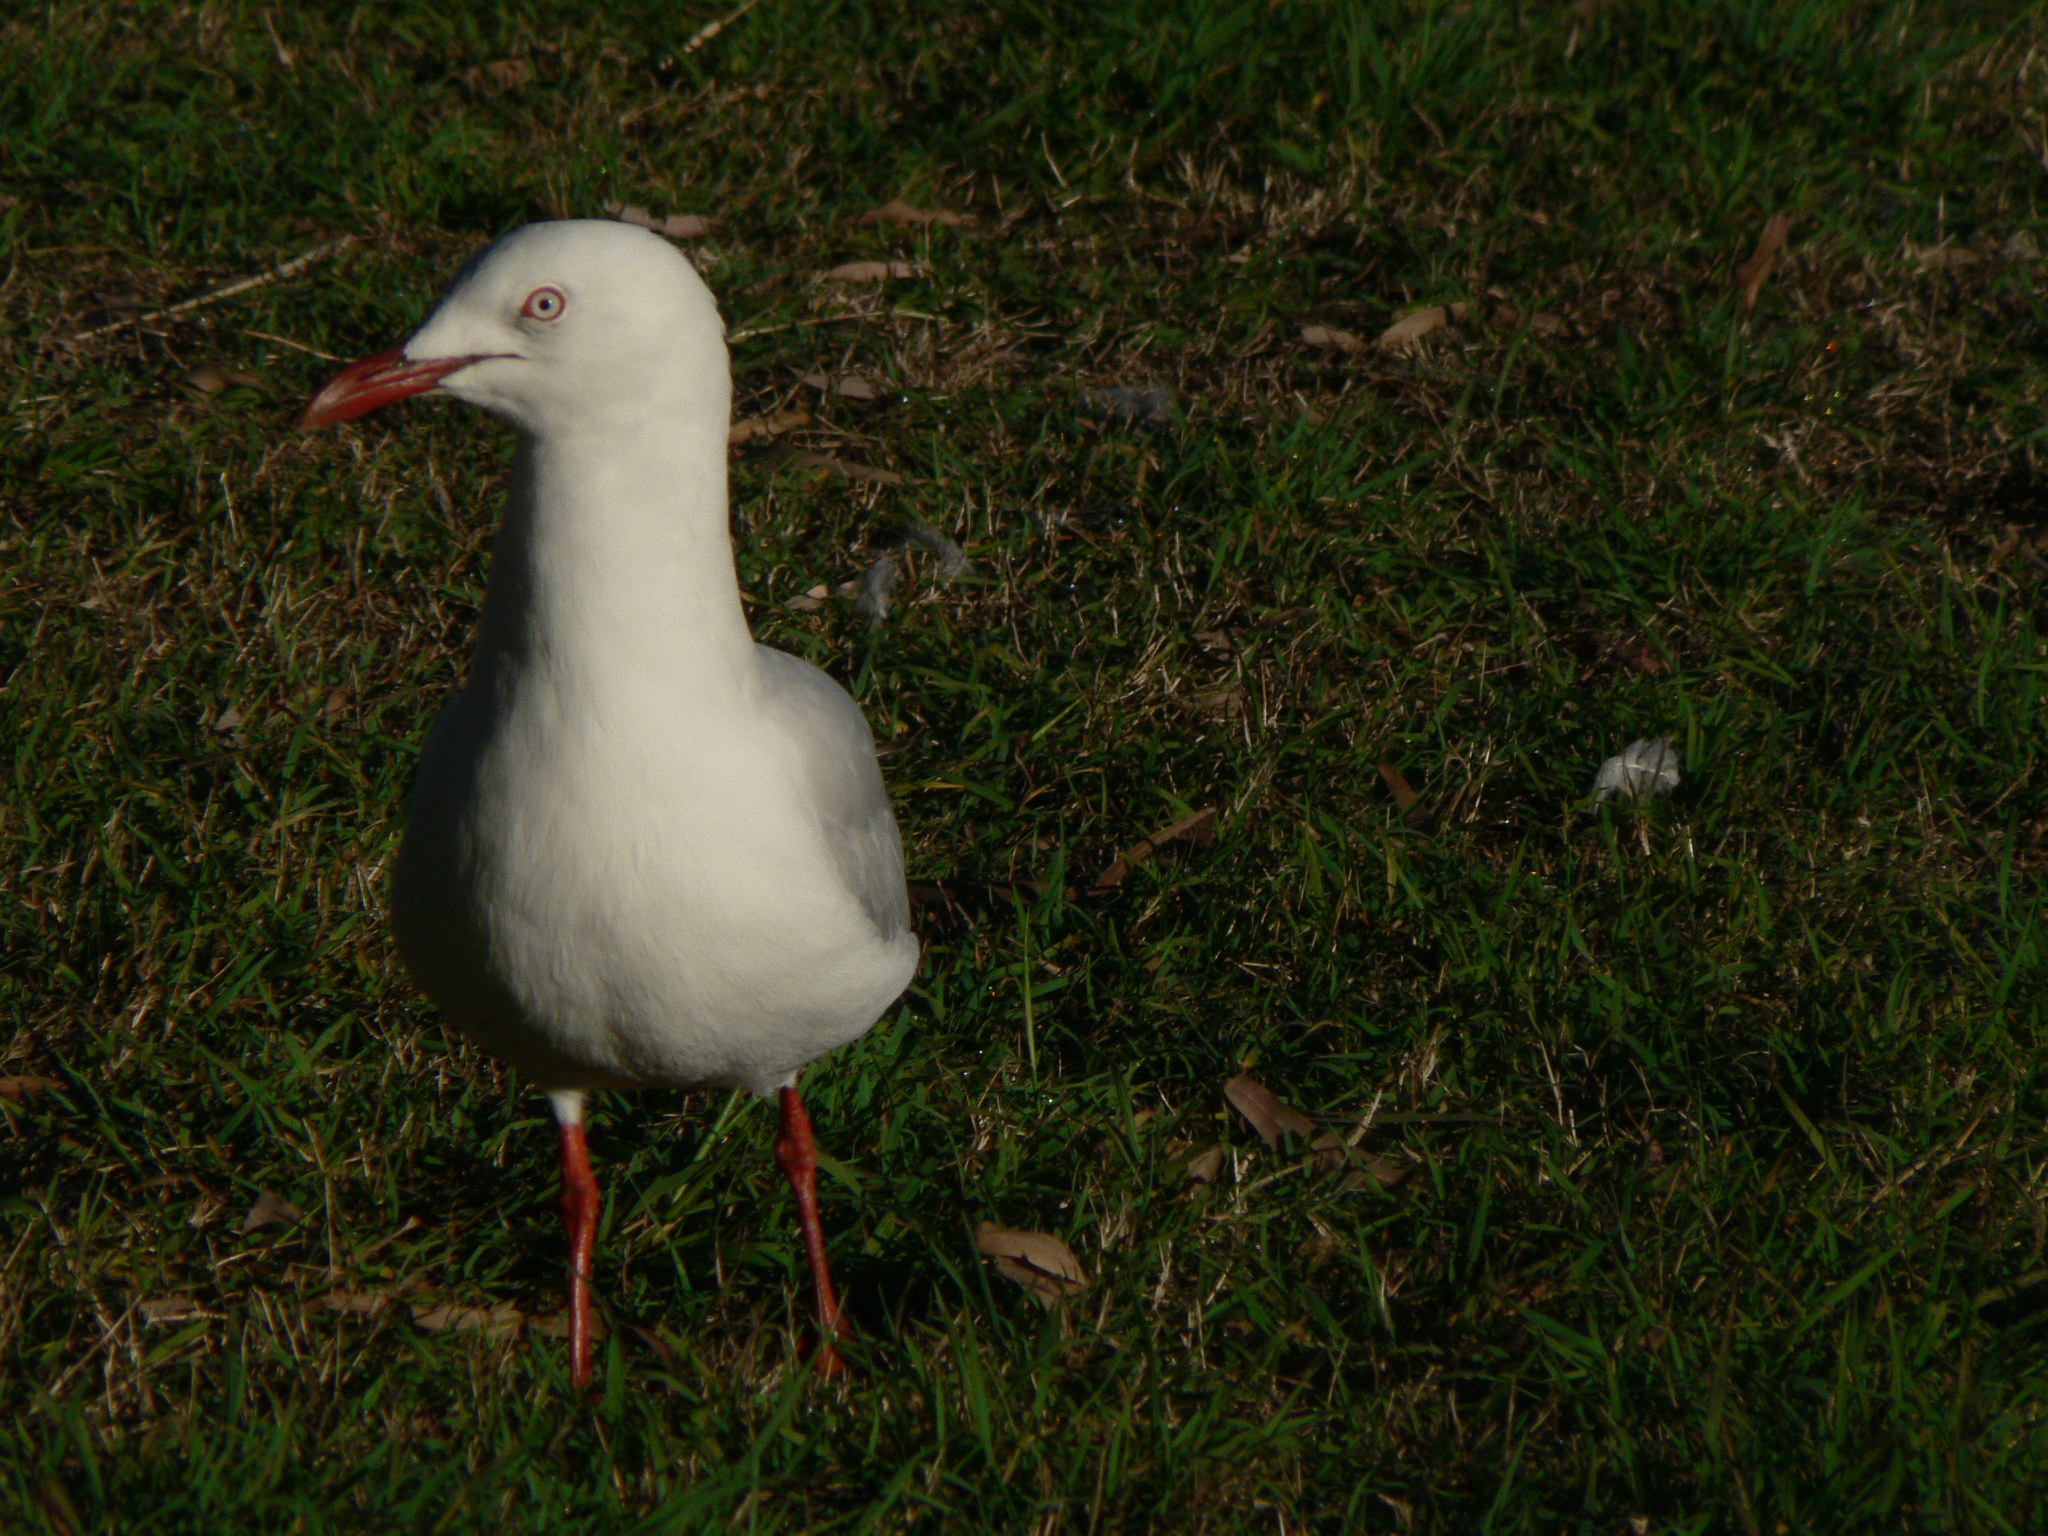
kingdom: Animalia
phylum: Chordata
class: Aves
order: Charadriiformes
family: Laridae
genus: Chroicocephalus
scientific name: Chroicocephalus novaehollandiae
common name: Silver gull
